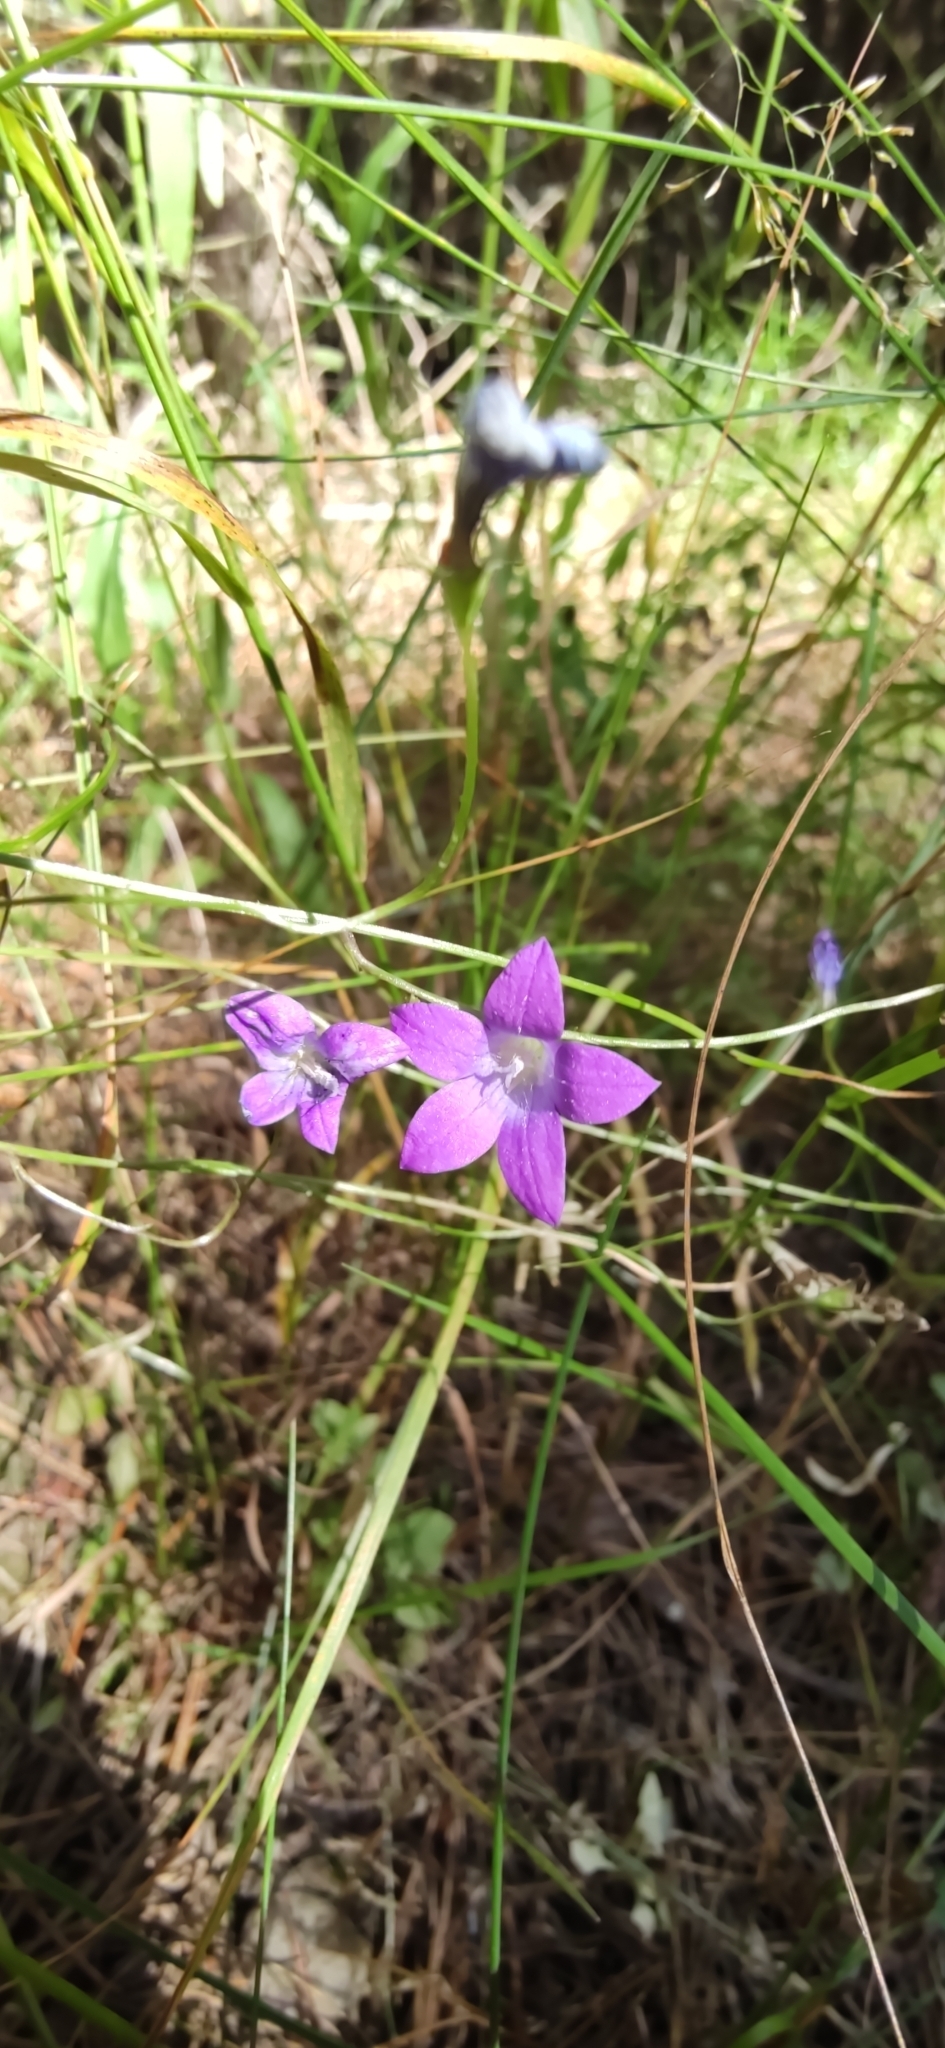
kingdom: Plantae
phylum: Tracheophyta
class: Magnoliopsida
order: Asterales
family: Campanulaceae
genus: Campanula
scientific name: Campanula patula
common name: Spreading bellflower
